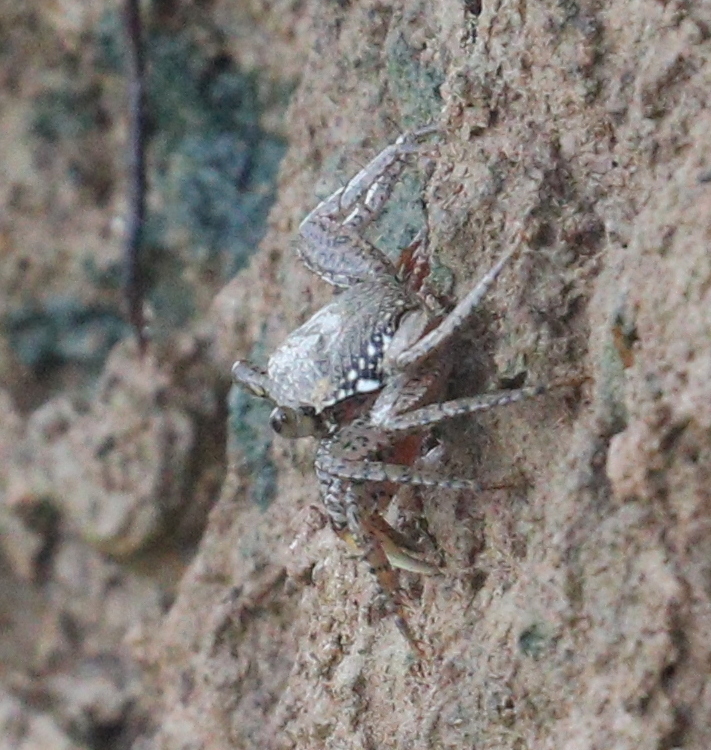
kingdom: Animalia
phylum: Arthropoda
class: Malacostraca
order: Decapoda
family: Grapsidae
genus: Goniopsis
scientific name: Goniopsis pulchra
